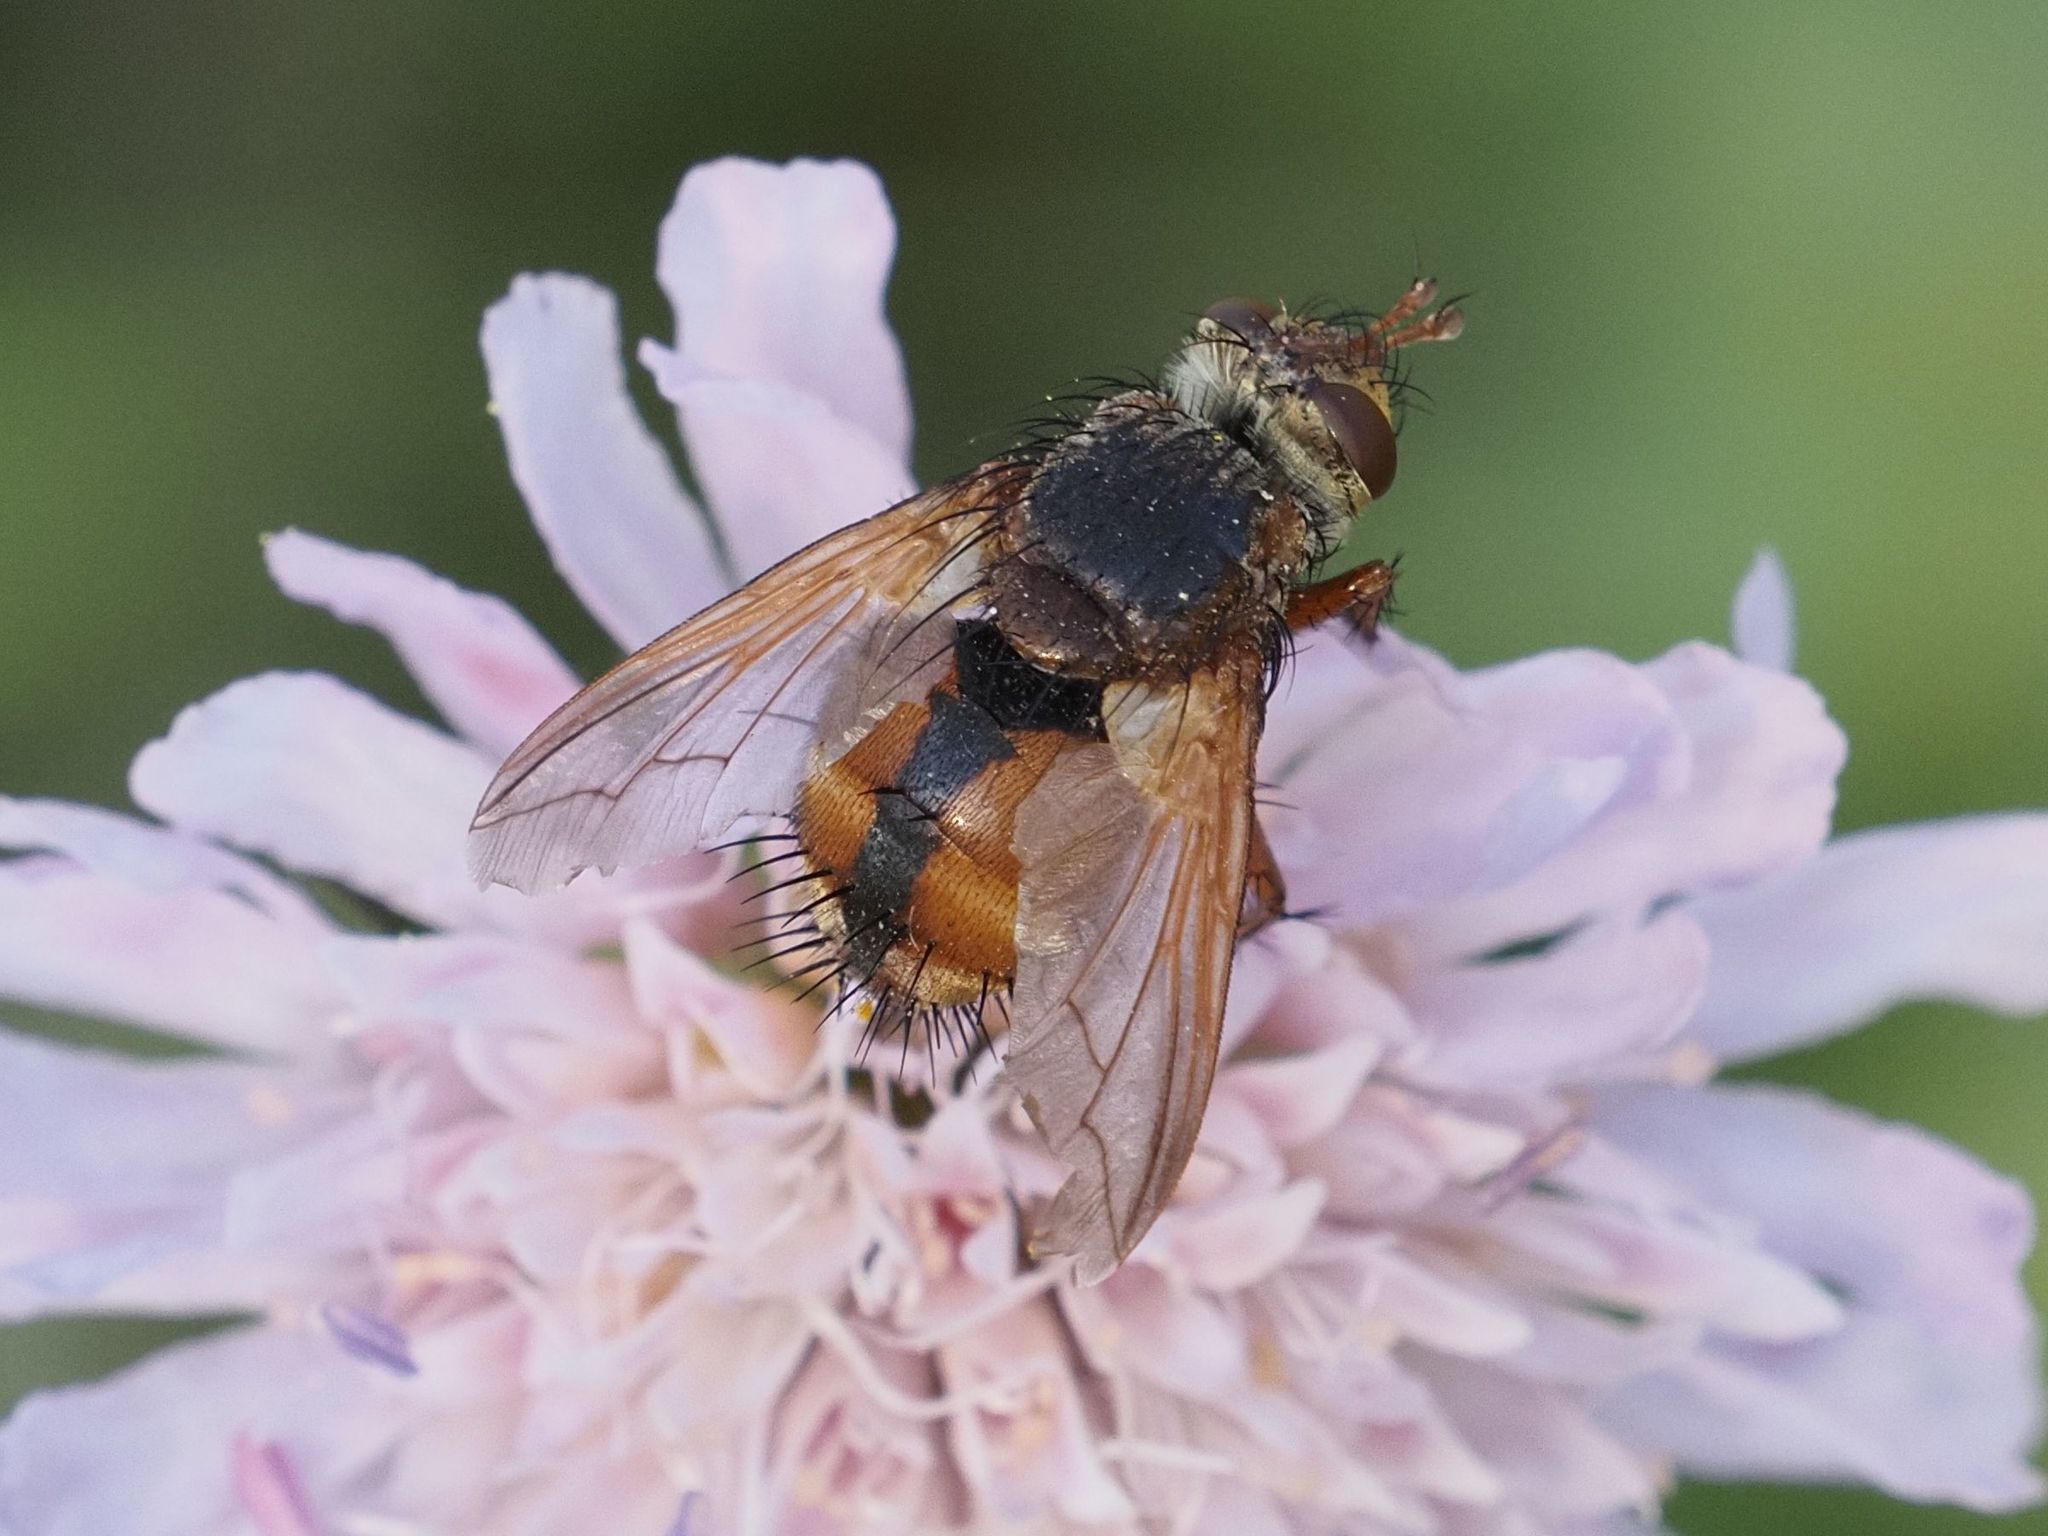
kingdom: Animalia
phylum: Arthropoda
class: Insecta
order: Diptera
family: Tachinidae
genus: Tachina
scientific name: Tachina fera
